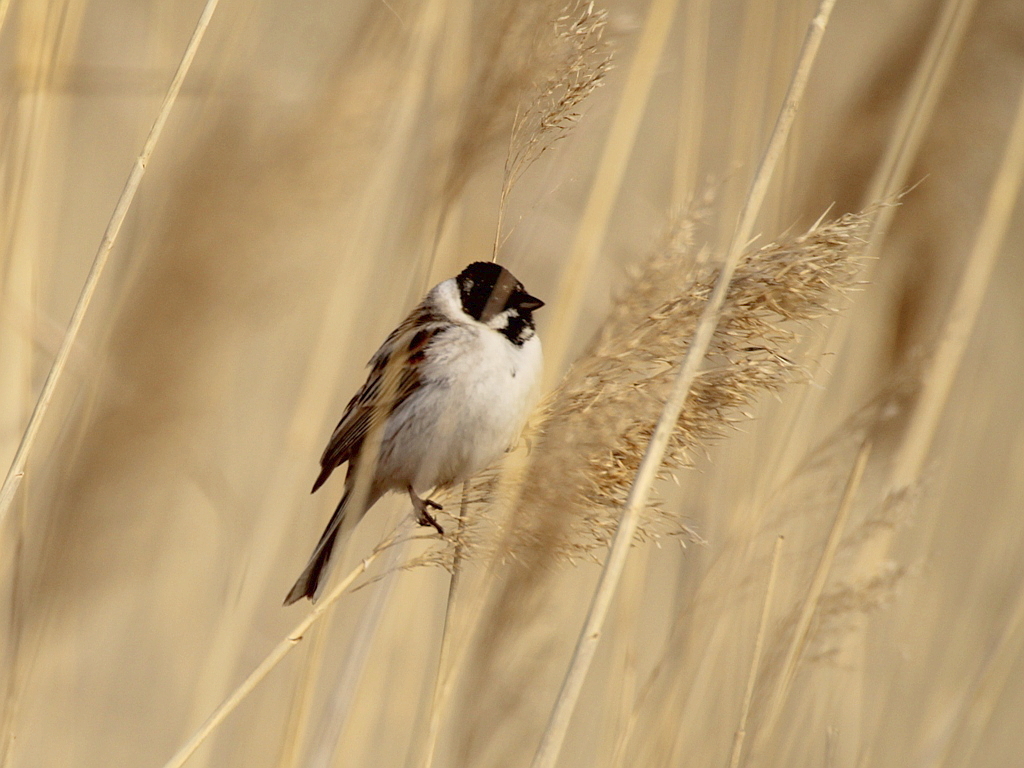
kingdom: Animalia
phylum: Chordata
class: Aves
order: Passeriformes
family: Emberizidae
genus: Emberiza
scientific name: Emberiza schoeniclus
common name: Reed bunting
